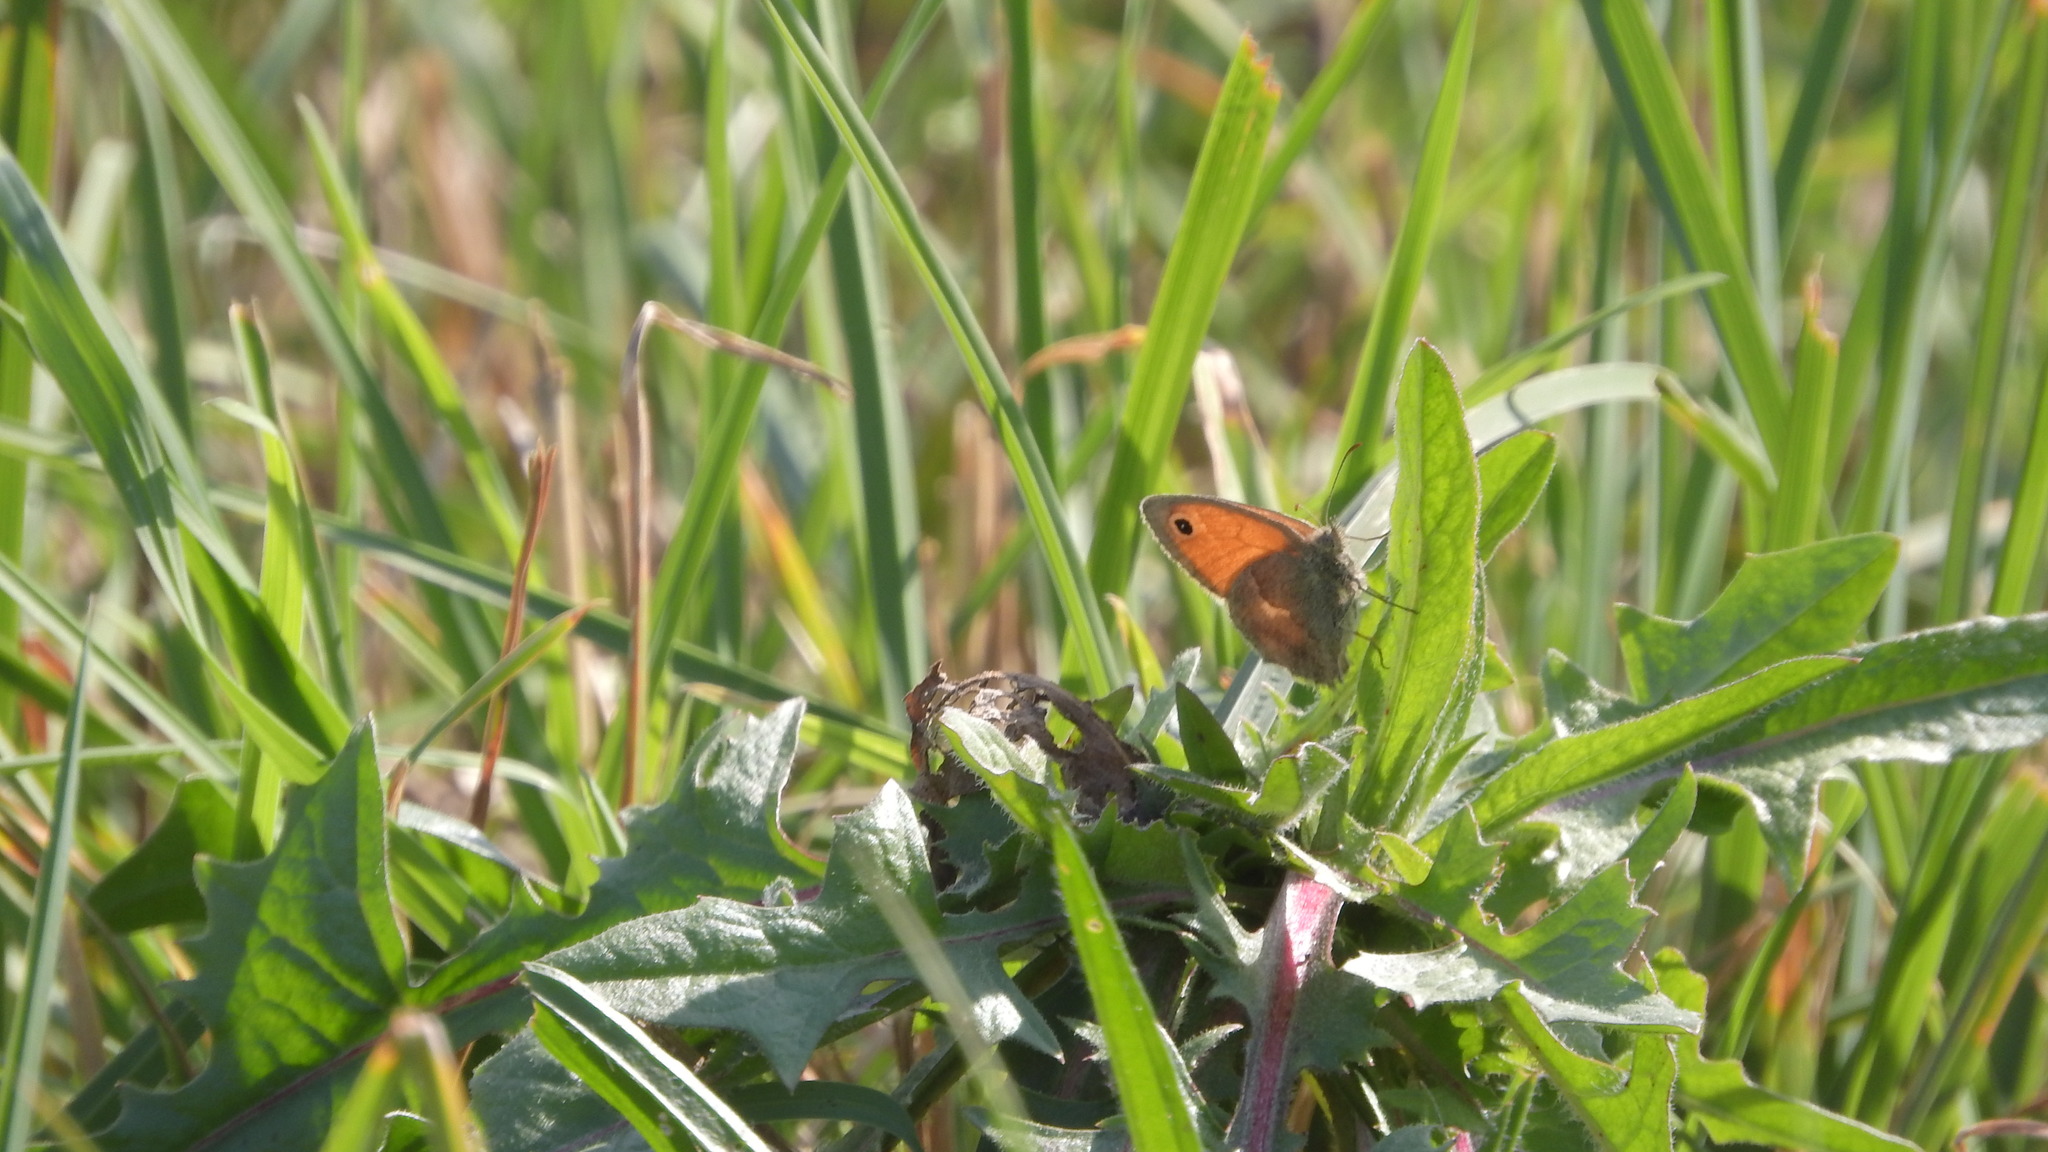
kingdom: Animalia
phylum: Arthropoda
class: Insecta
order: Lepidoptera
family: Nymphalidae
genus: Coenonympha
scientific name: Coenonympha pamphilus
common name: Small heath
